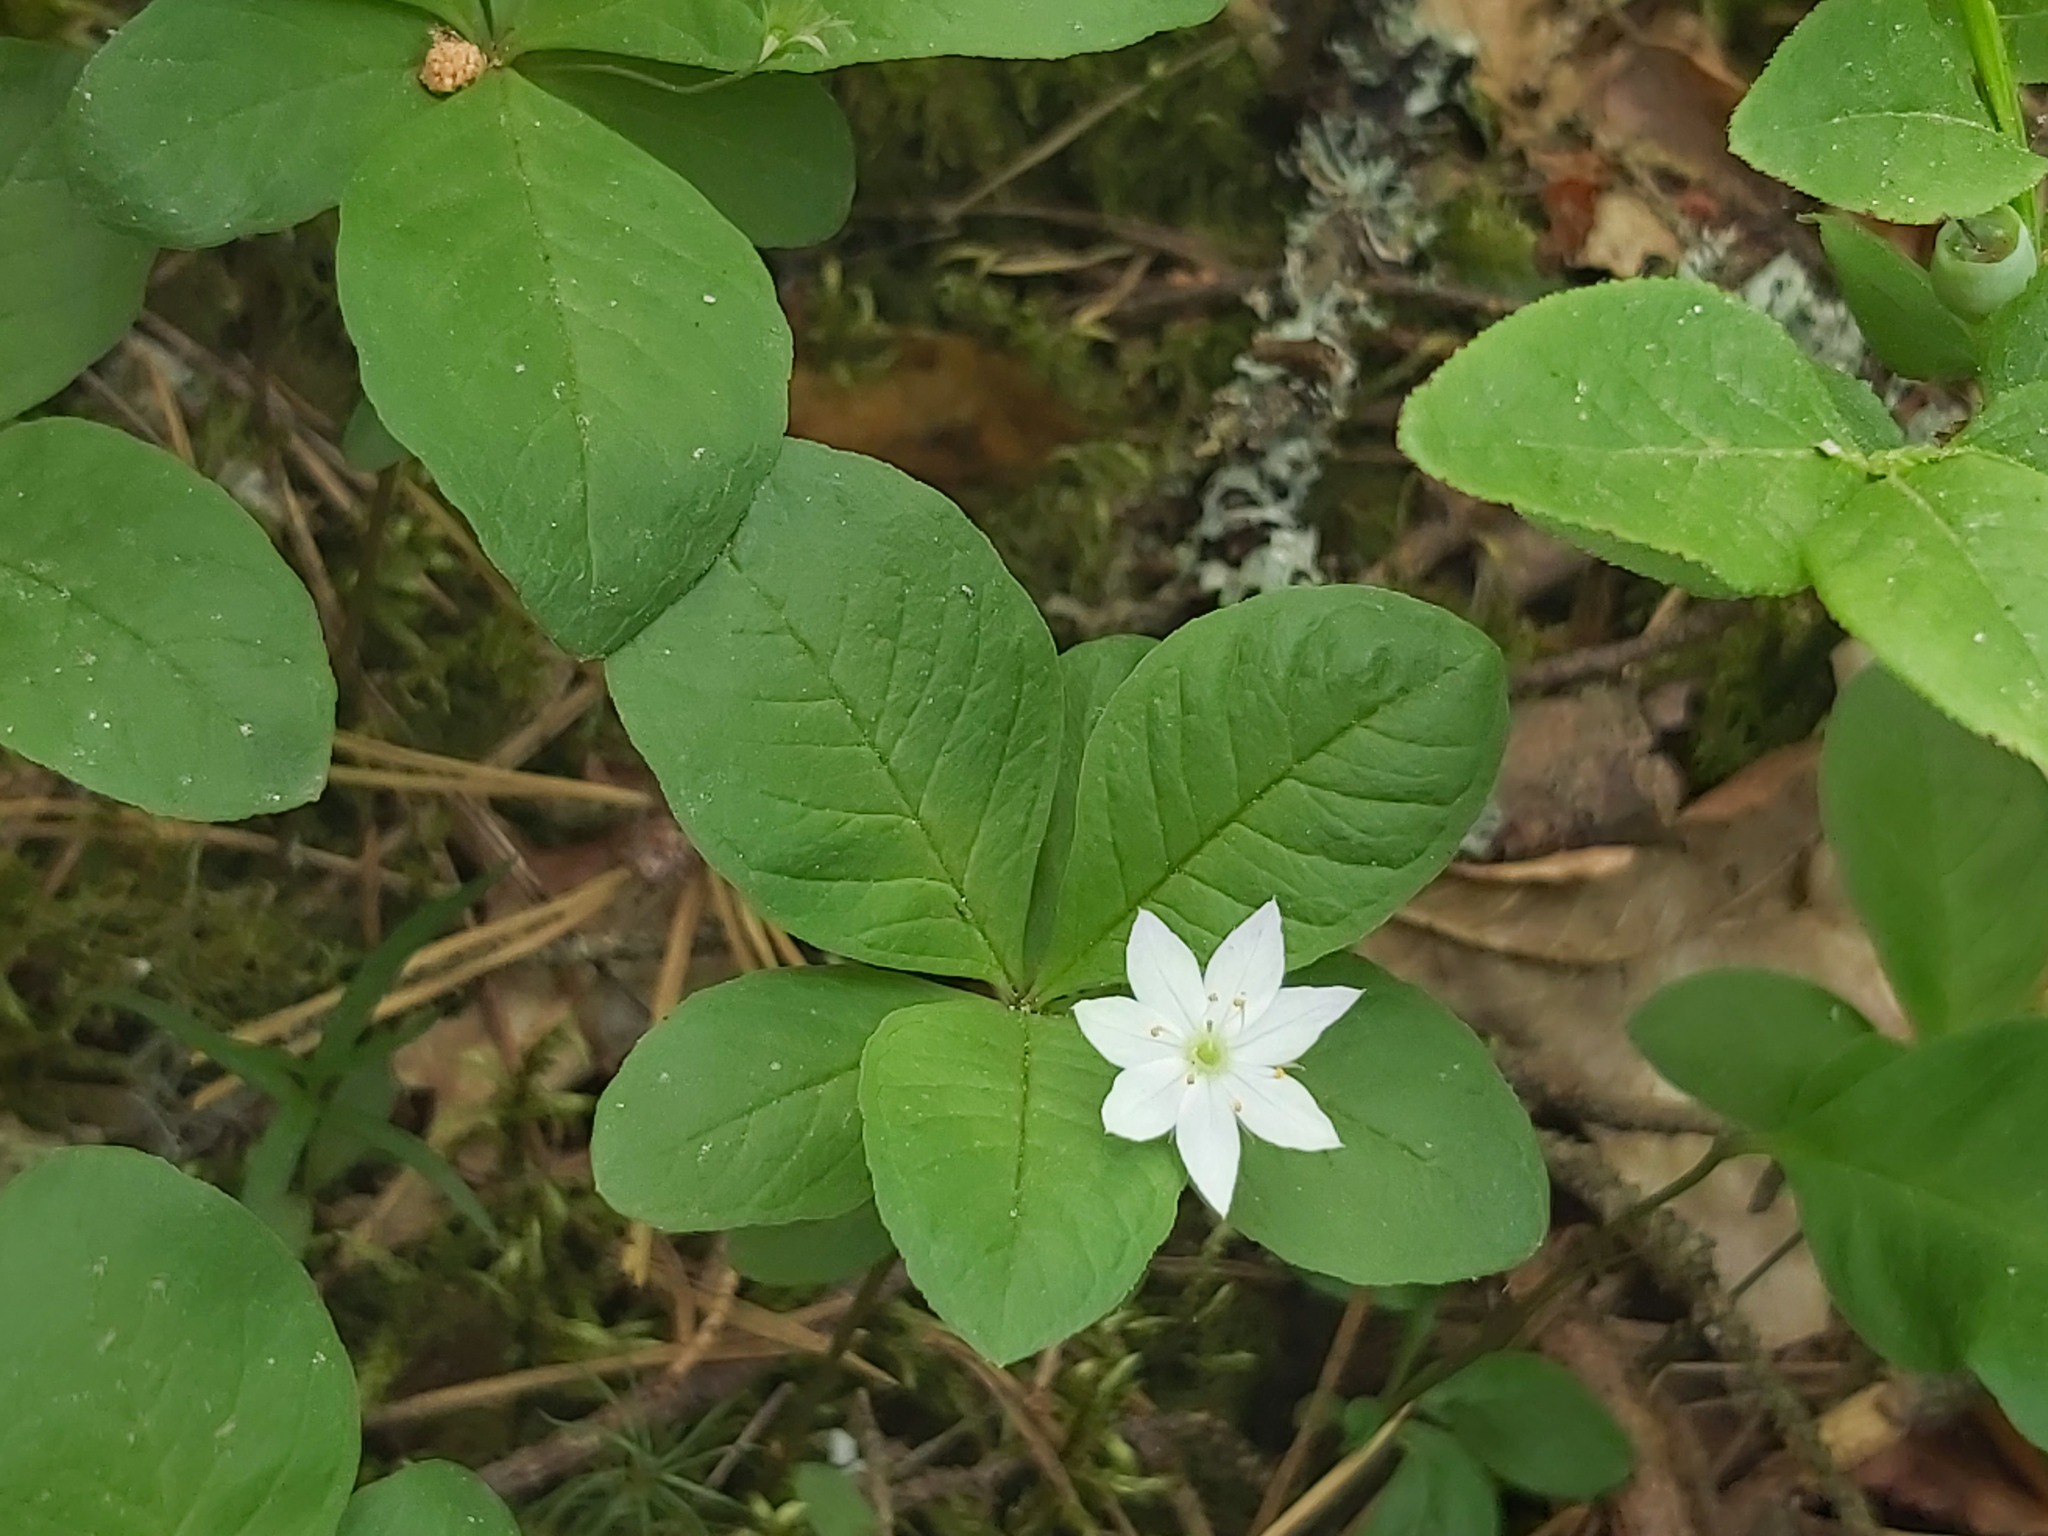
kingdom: Plantae
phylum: Tracheophyta
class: Magnoliopsida
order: Ericales
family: Primulaceae
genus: Lysimachia
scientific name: Lysimachia europaea
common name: Arctic starflower
